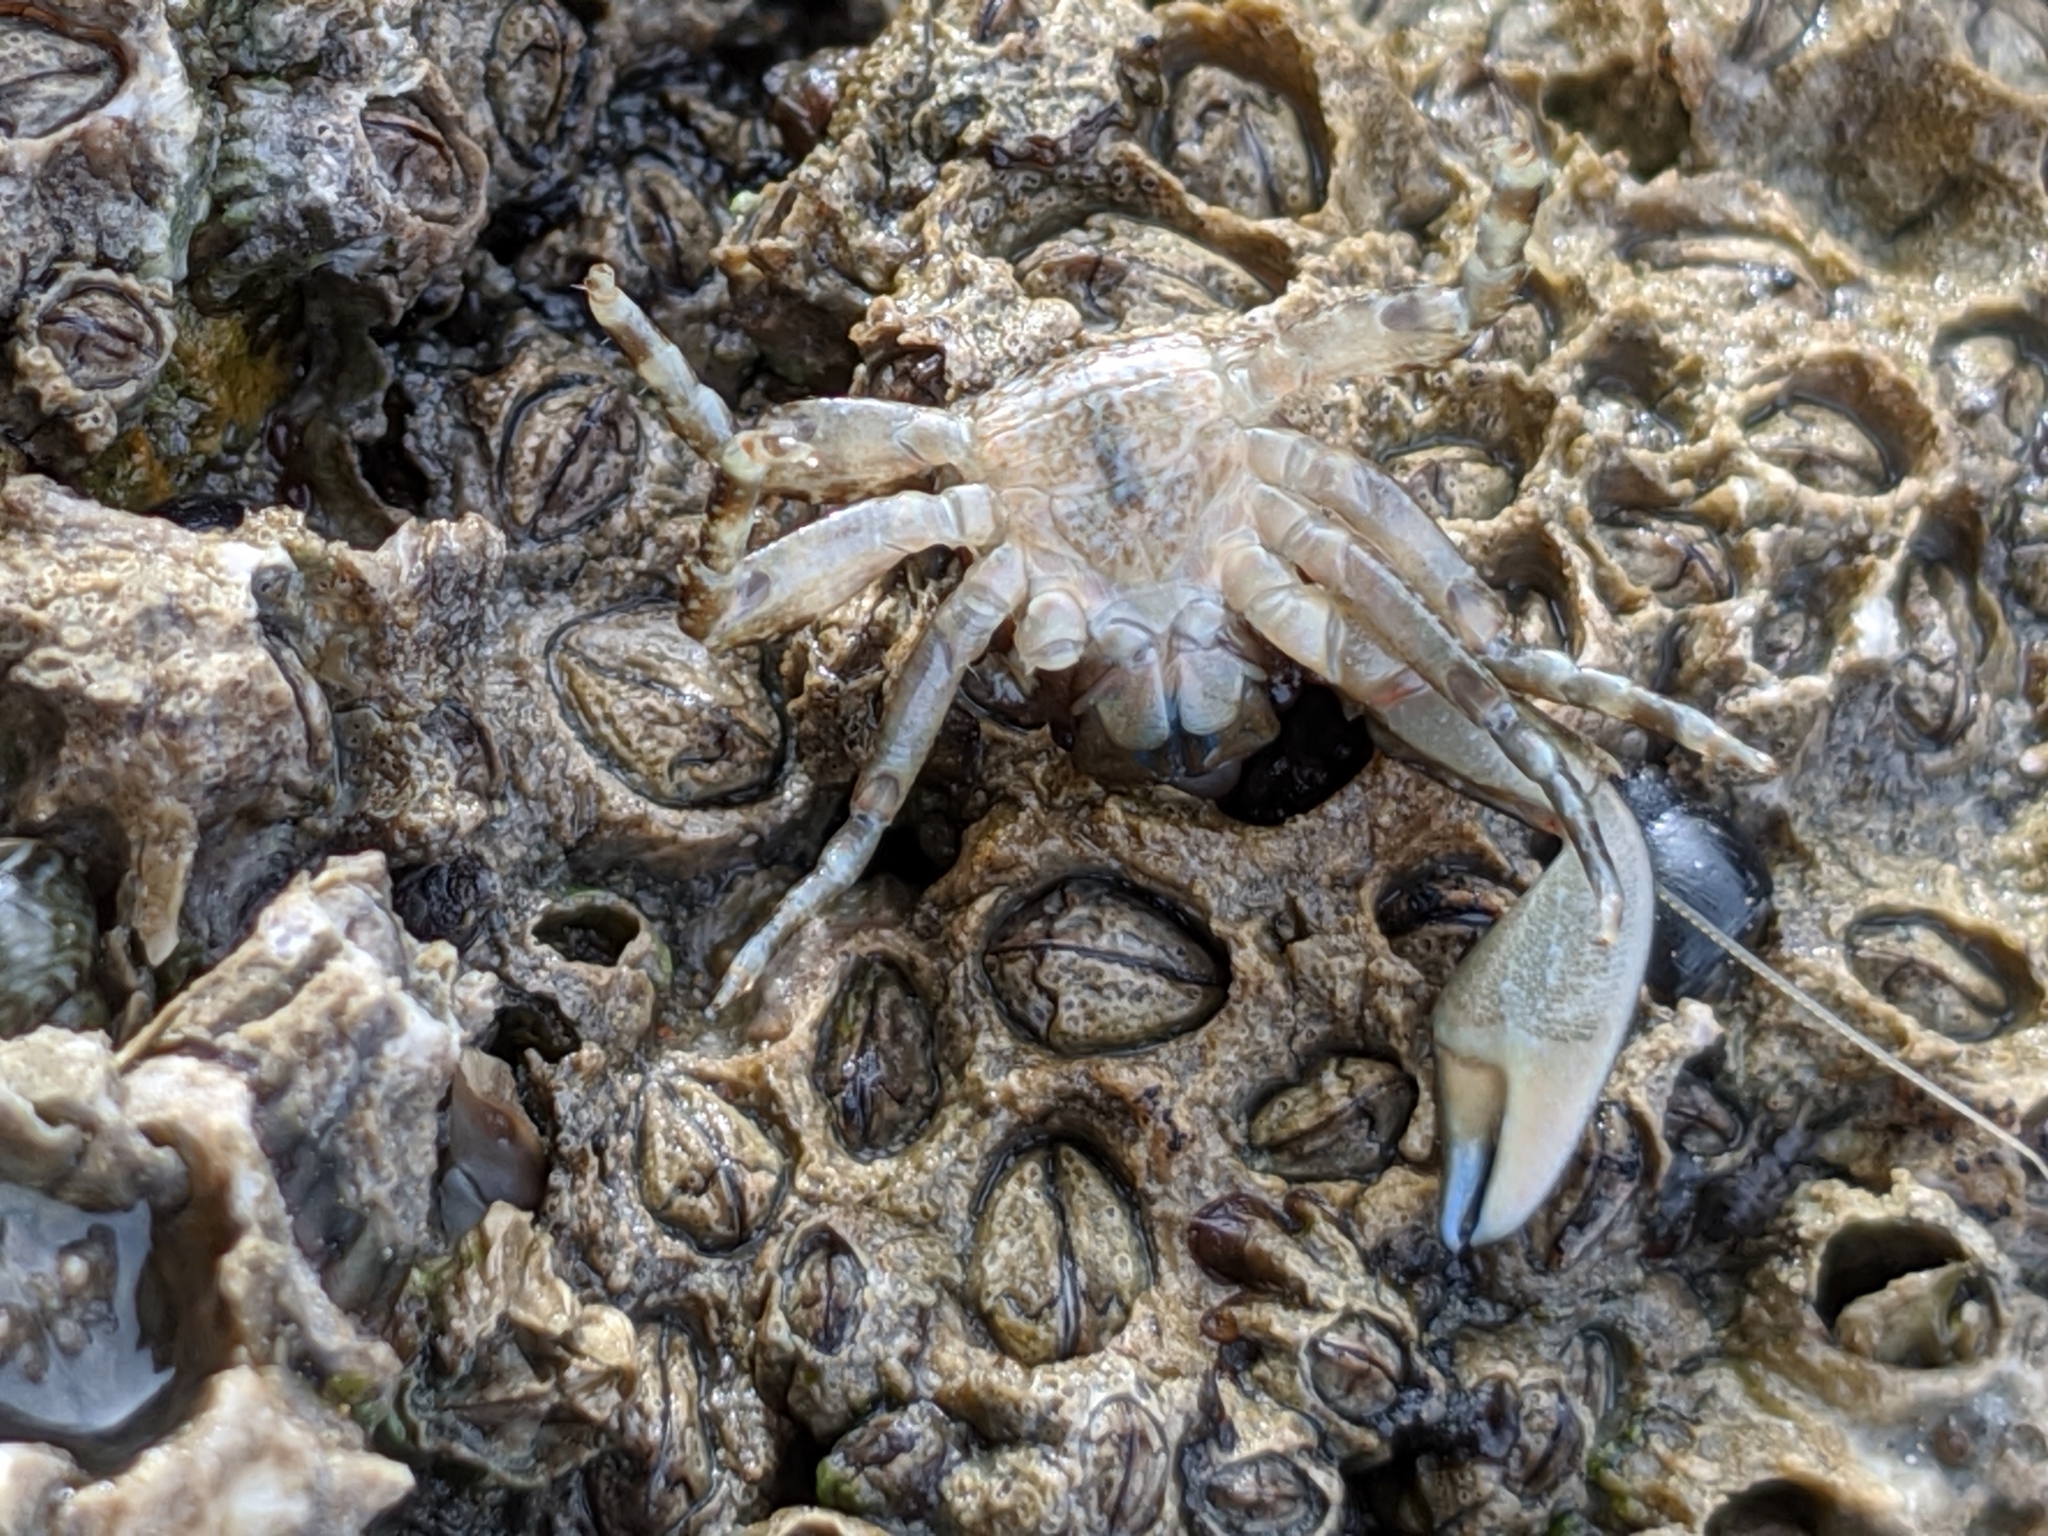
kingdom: Animalia
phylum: Arthropoda
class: Malacostraca
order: Decapoda
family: Porcellanidae
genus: Petrolisthes
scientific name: Petrolisthes manimaculis
